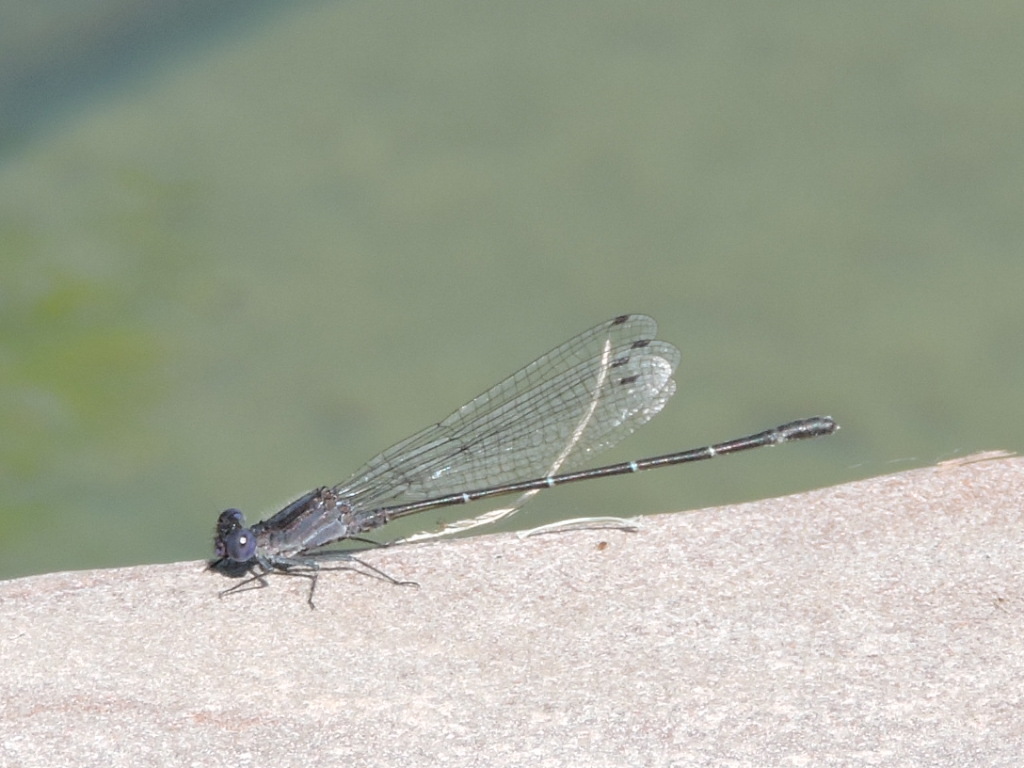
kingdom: Animalia
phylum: Arthropoda
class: Insecta
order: Odonata
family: Coenagrionidae
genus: Argia
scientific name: Argia translata
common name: Dusky dancer
